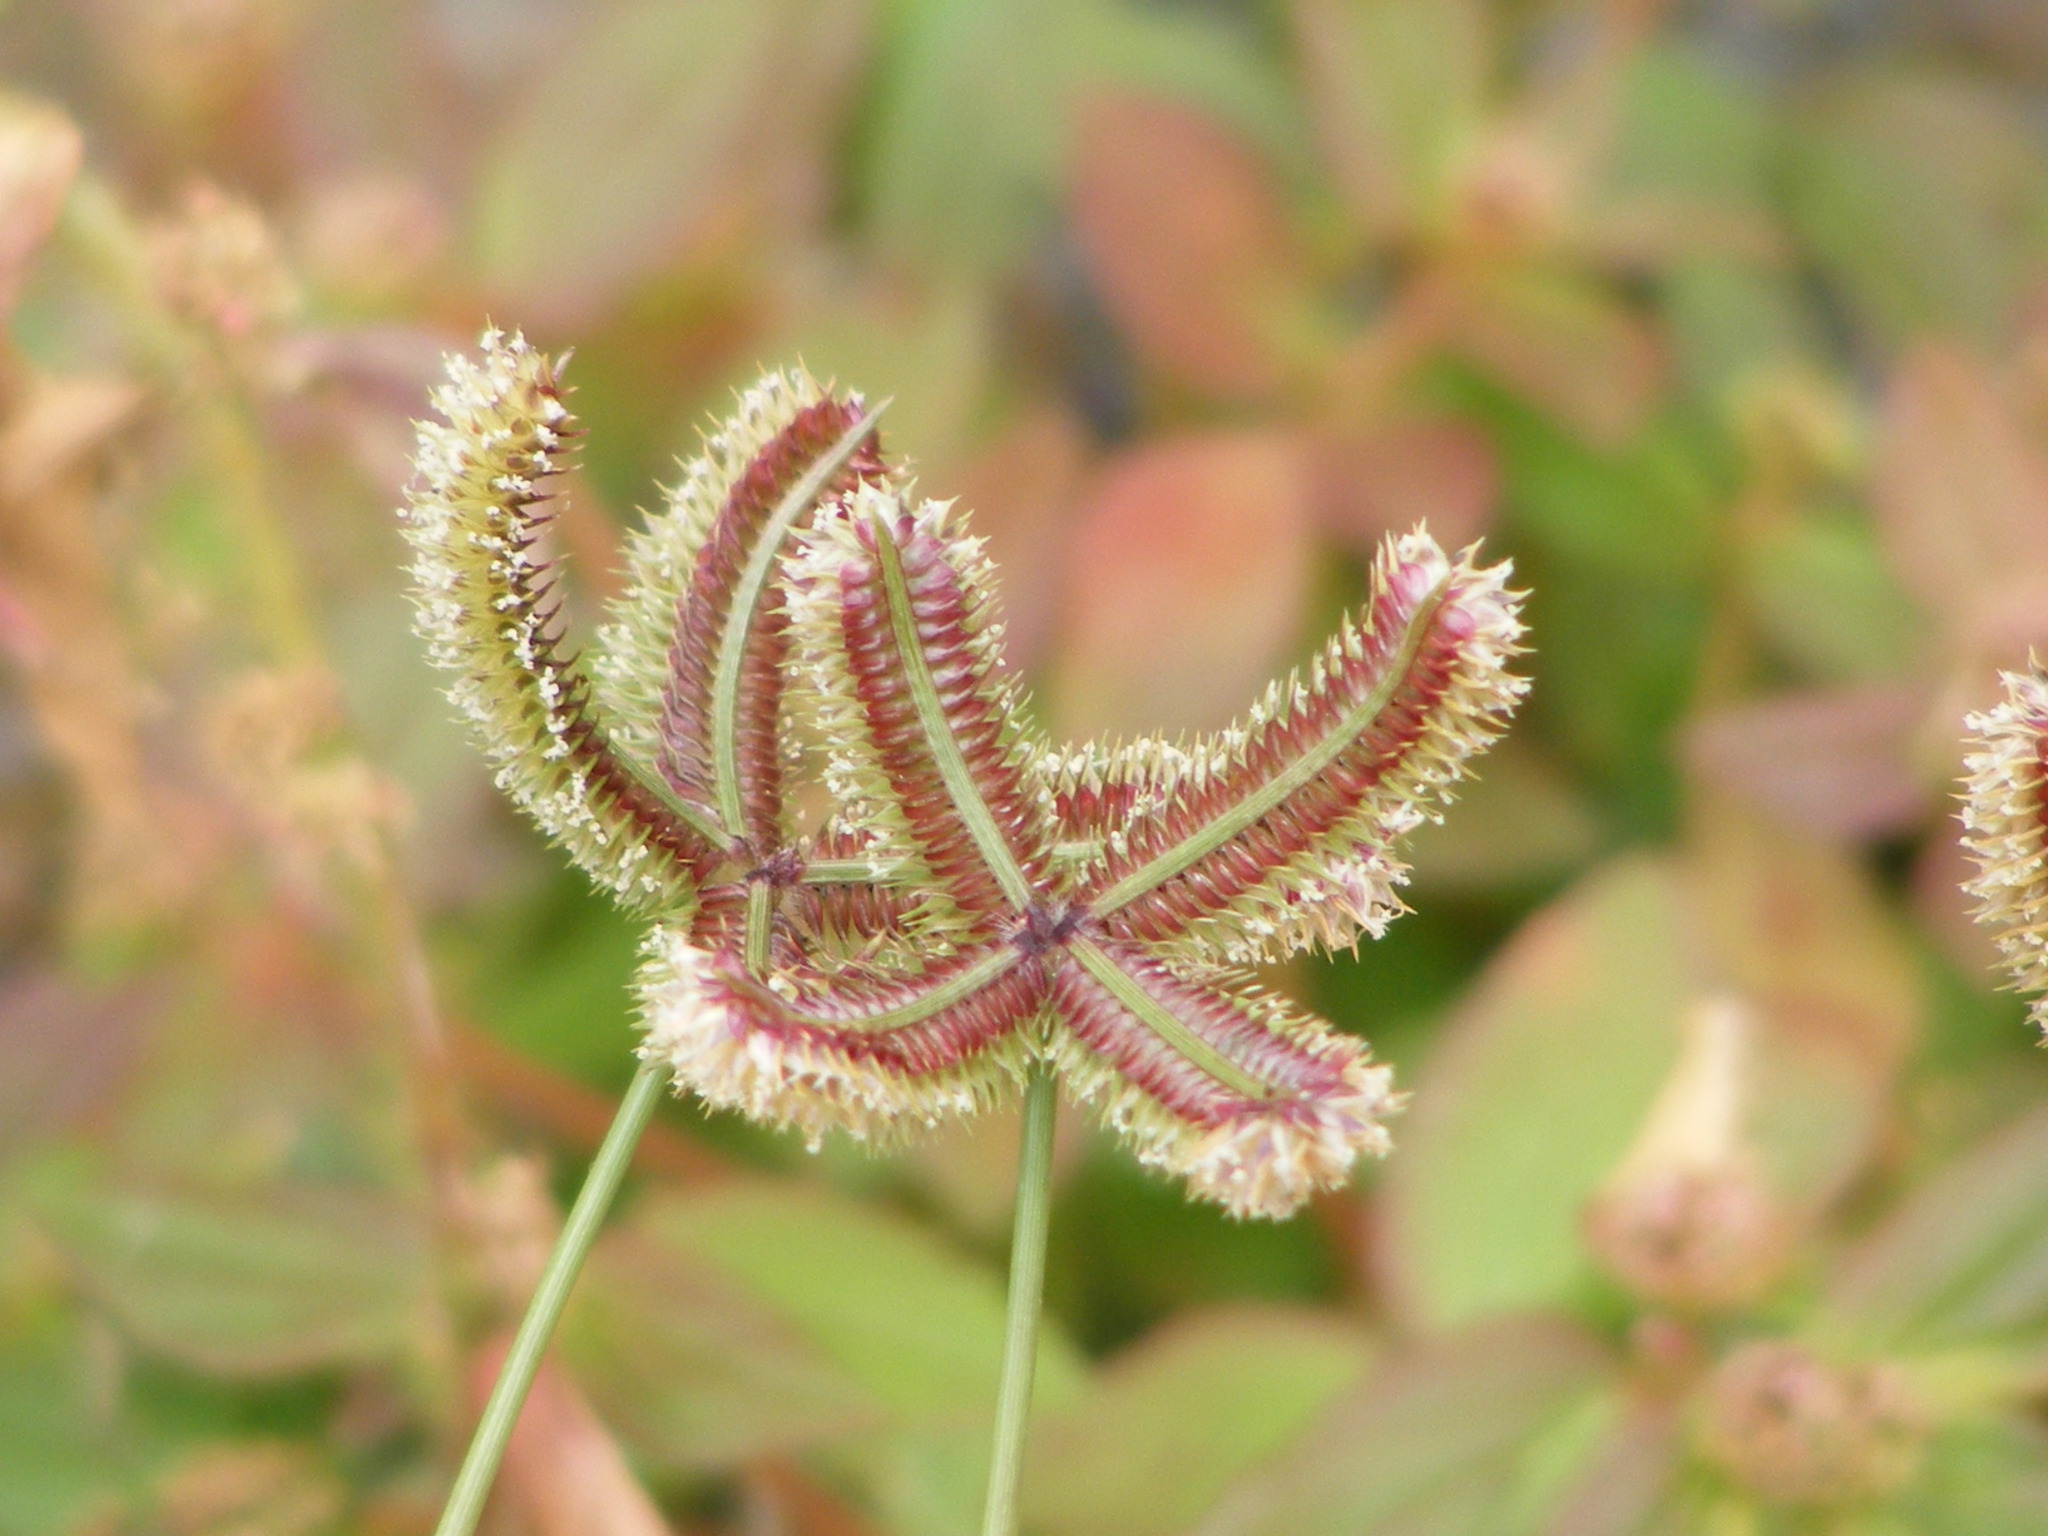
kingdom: Plantae
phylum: Tracheophyta
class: Liliopsida
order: Poales
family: Poaceae
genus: Dactyloctenium
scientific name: Dactyloctenium aegyptium
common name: Egyptian grass
